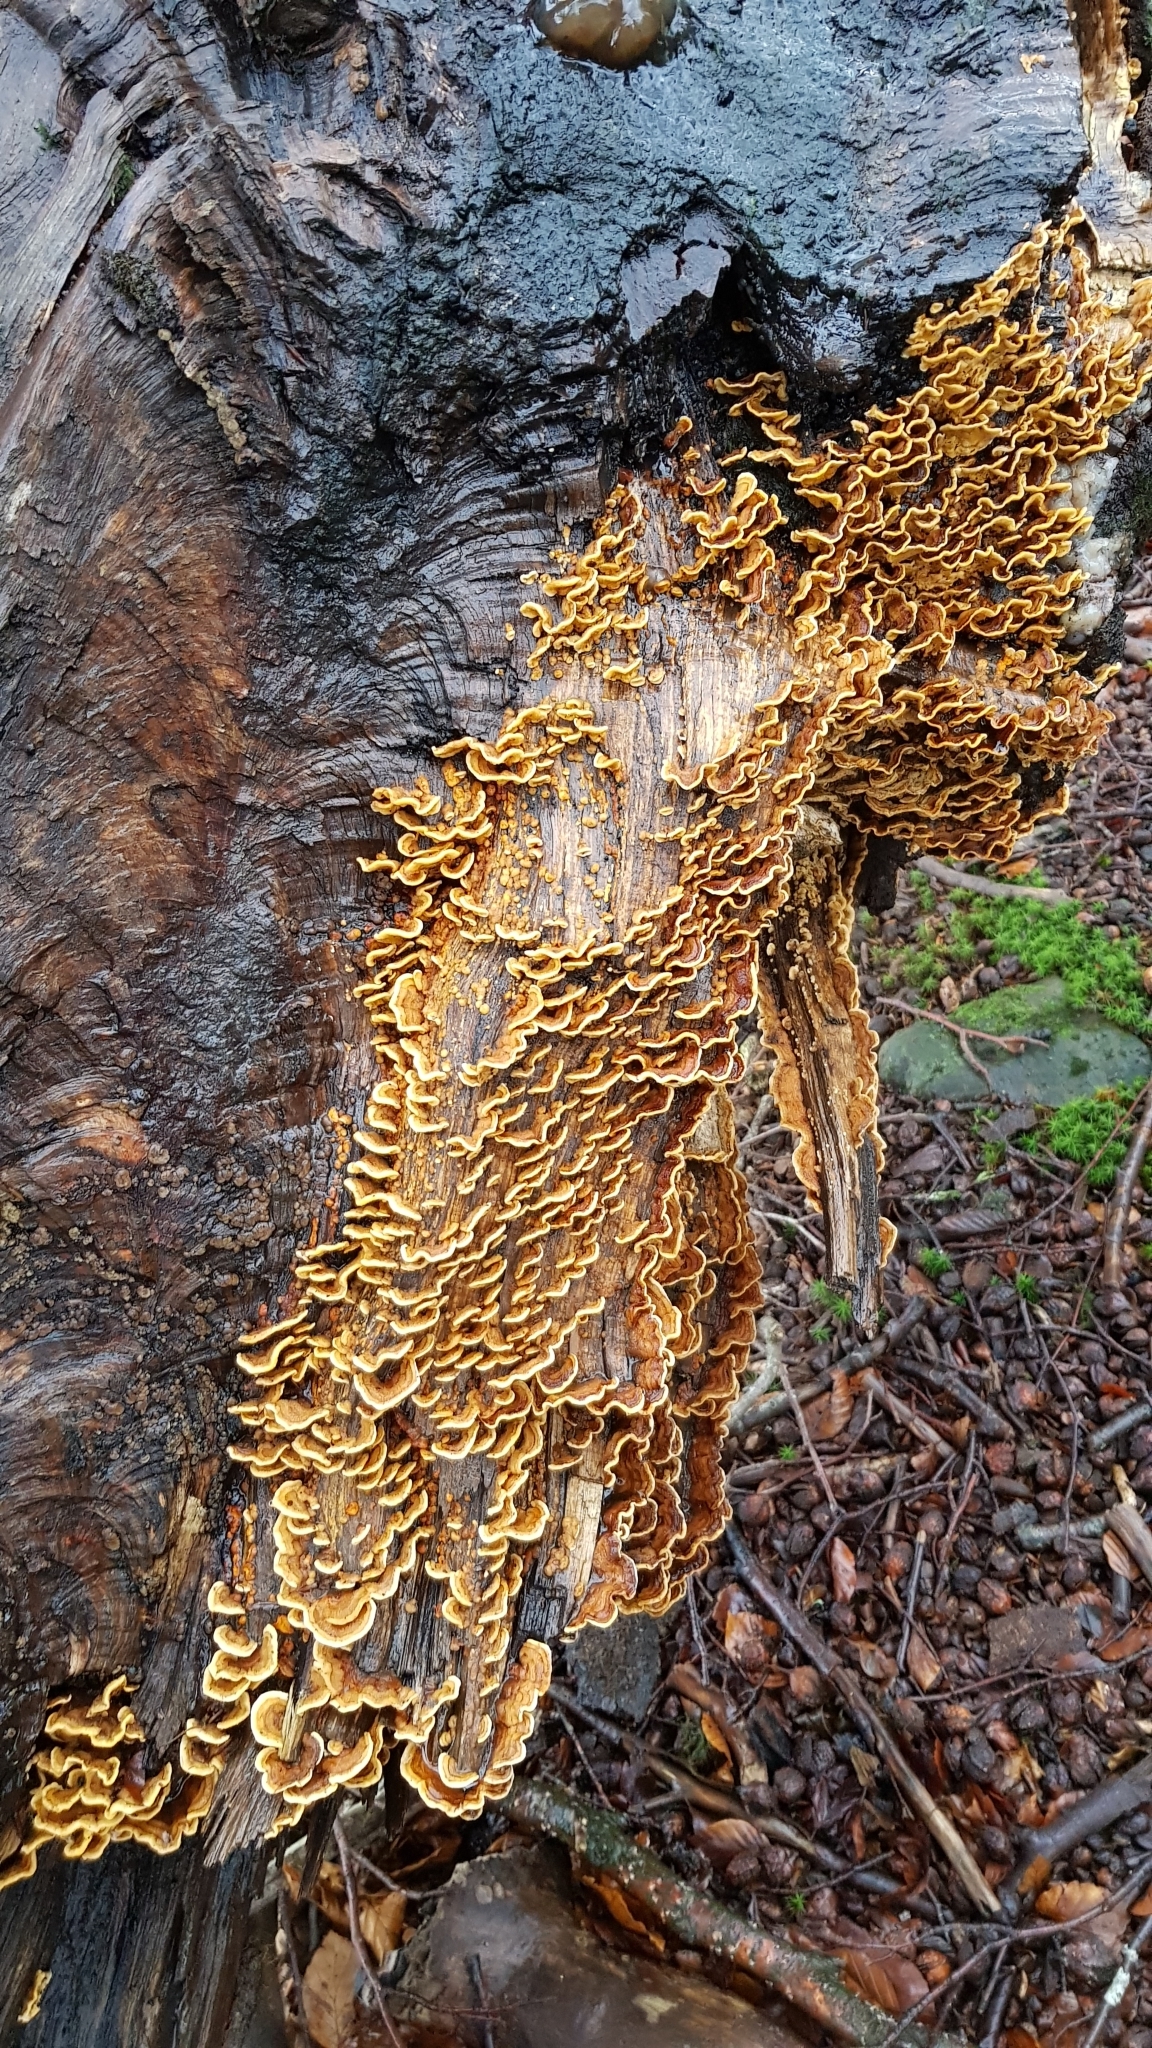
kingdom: Fungi
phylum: Basidiomycota
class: Agaricomycetes
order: Russulales
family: Stereaceae
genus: Stereum
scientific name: Stereum hirsutum
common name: Hairy curtain crust
